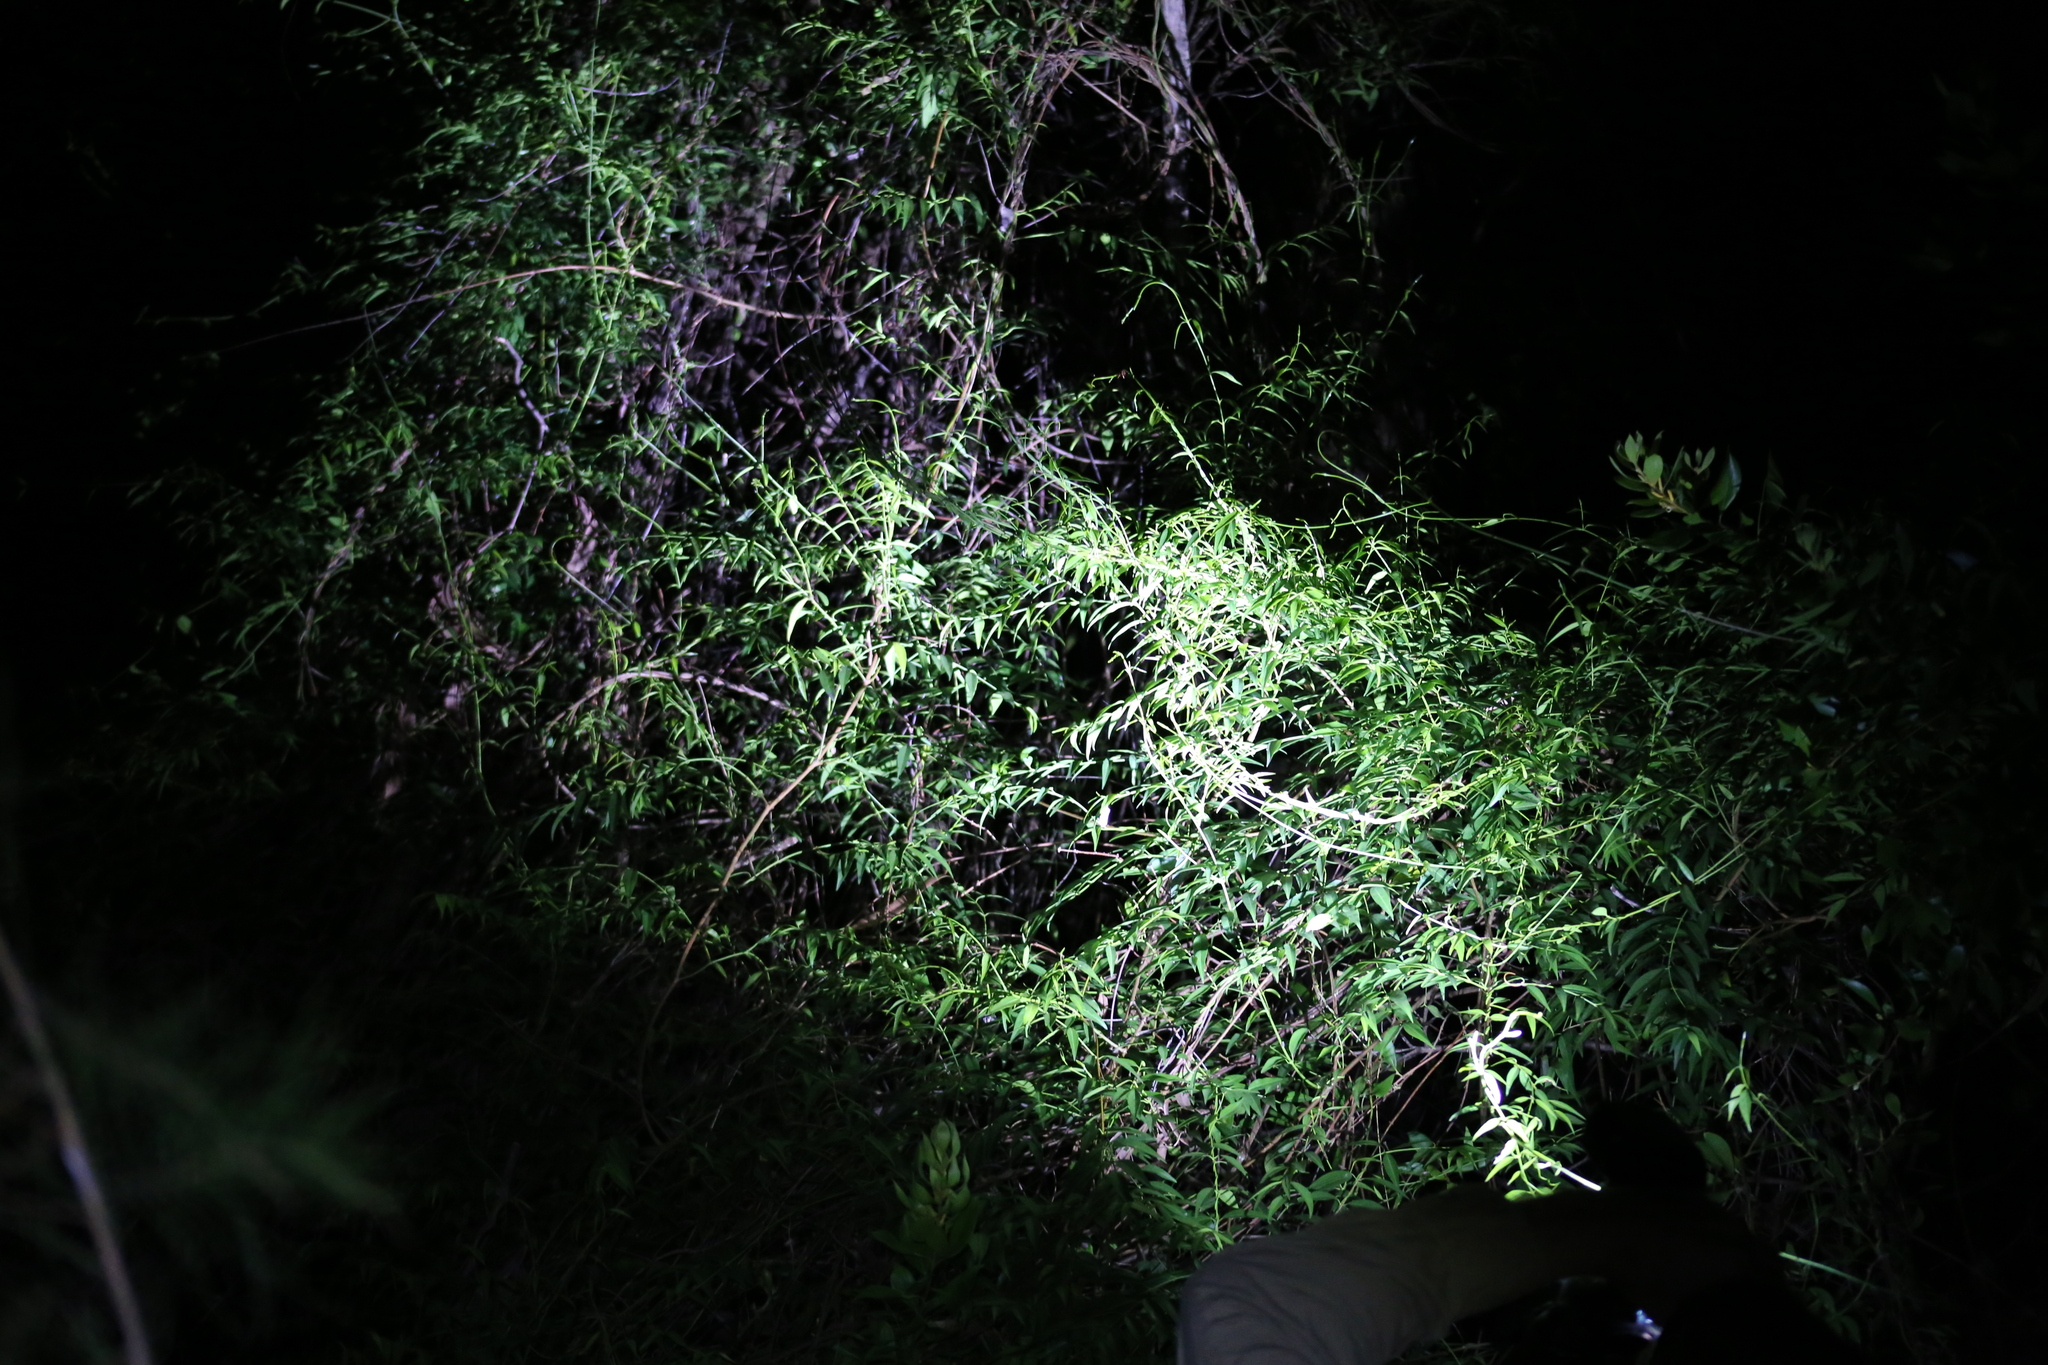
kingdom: Plantae
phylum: Tracheophyta
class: Magnoliopsida
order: Gentianales
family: Apocynaceae
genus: Secamone
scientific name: Secamone elliptica
